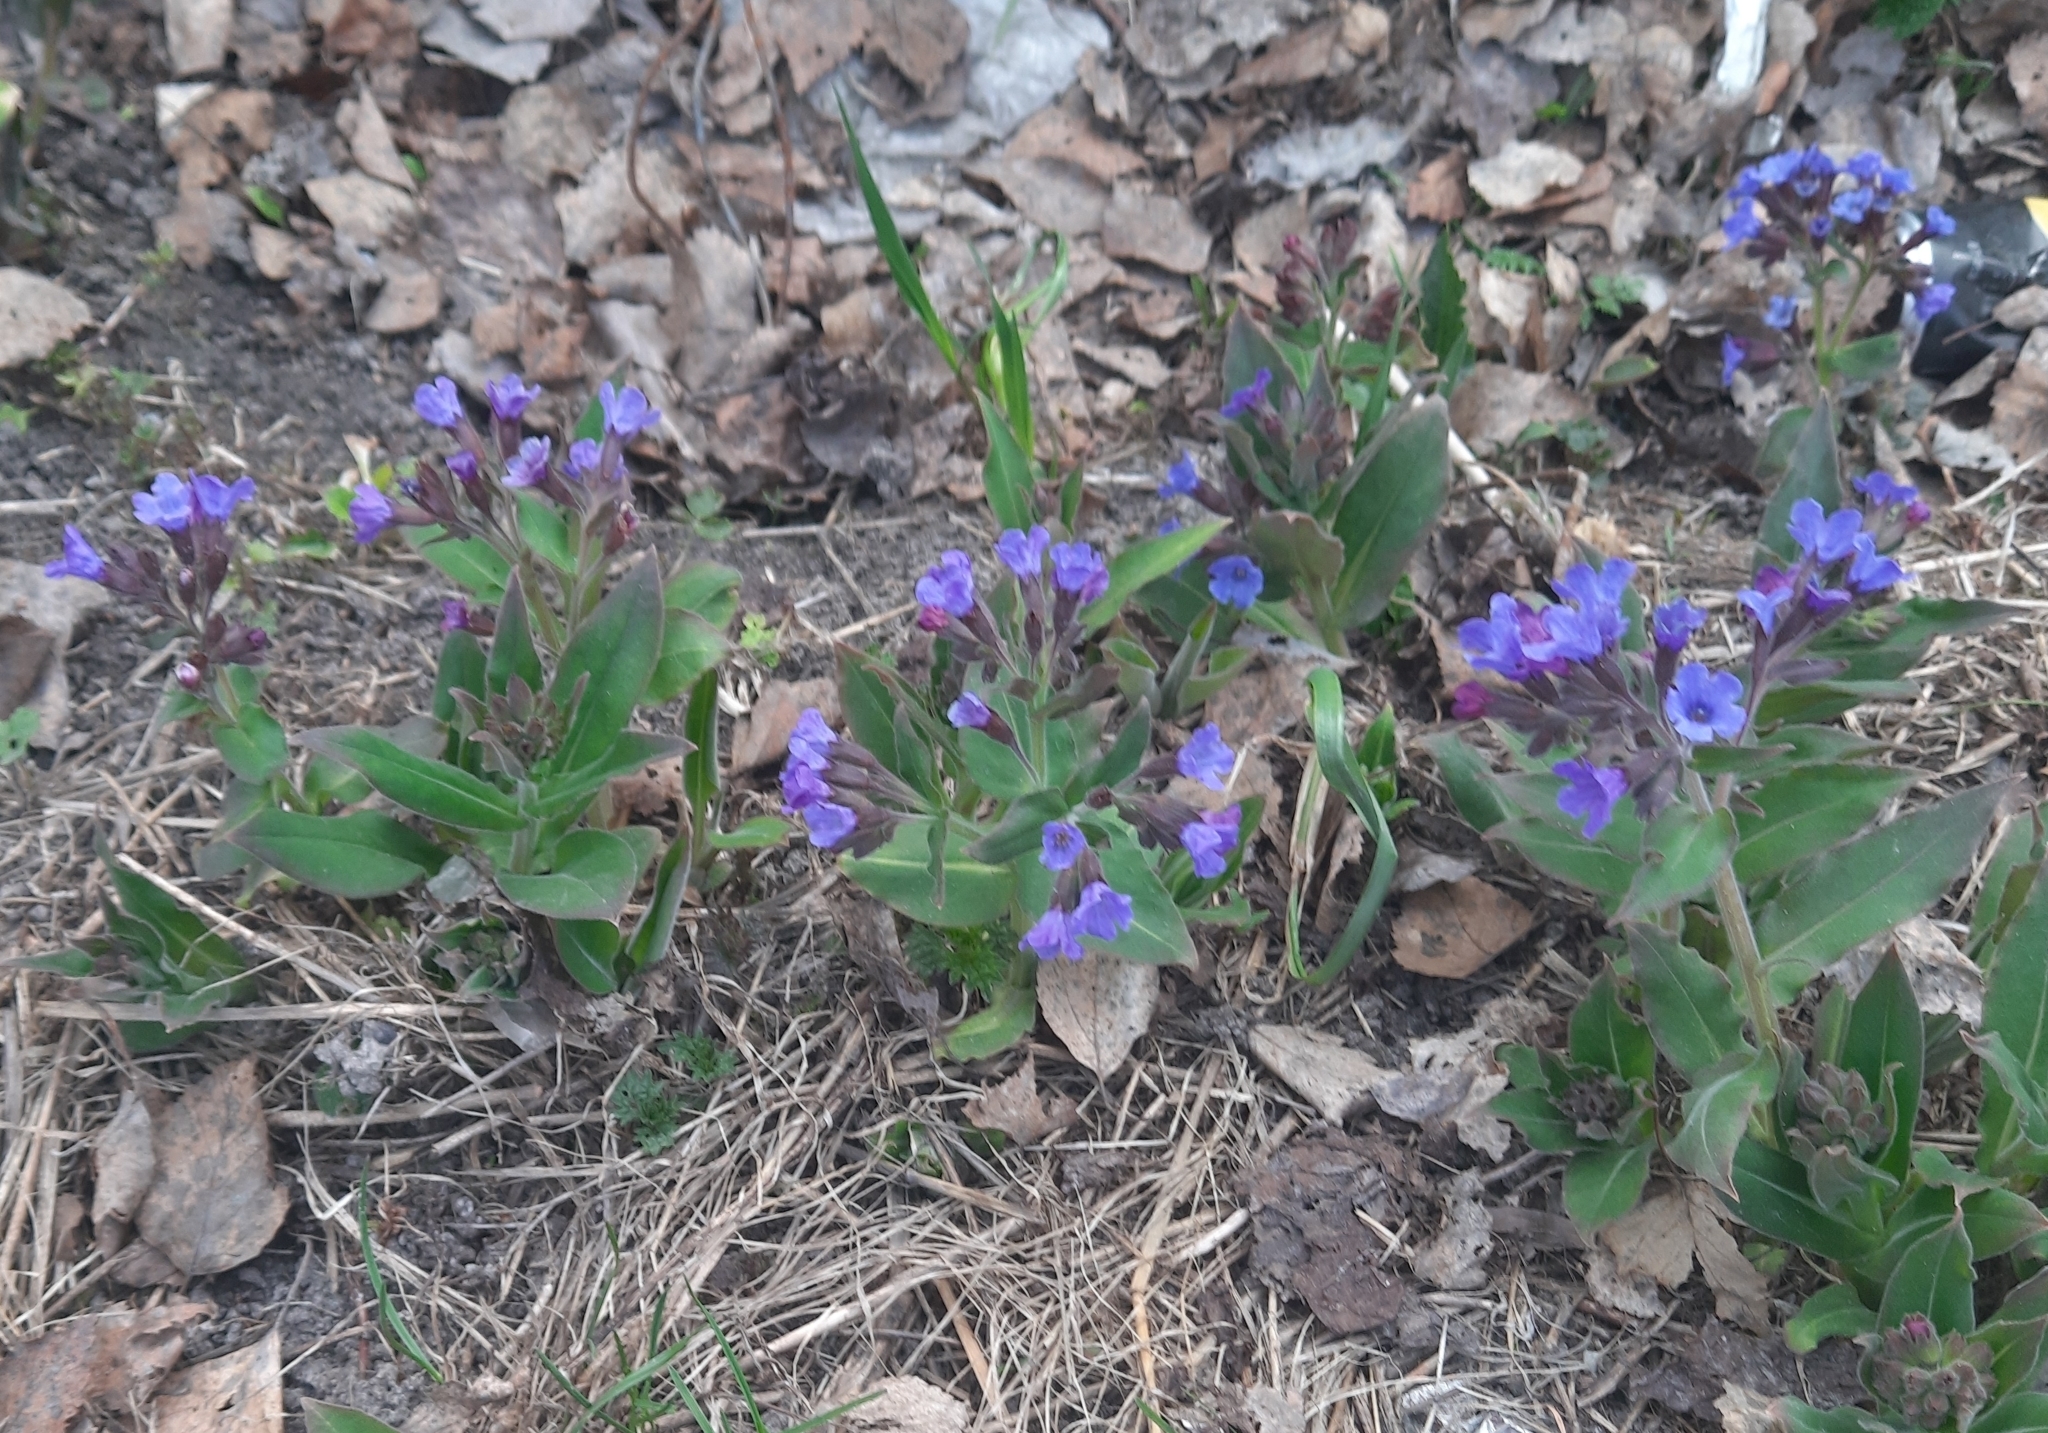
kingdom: Plantae
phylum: Tracheophyta
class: Magnoliopsida
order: Boraginales
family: Boraginaceae
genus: Pulmonaria
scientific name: Pulmonaria mollis
